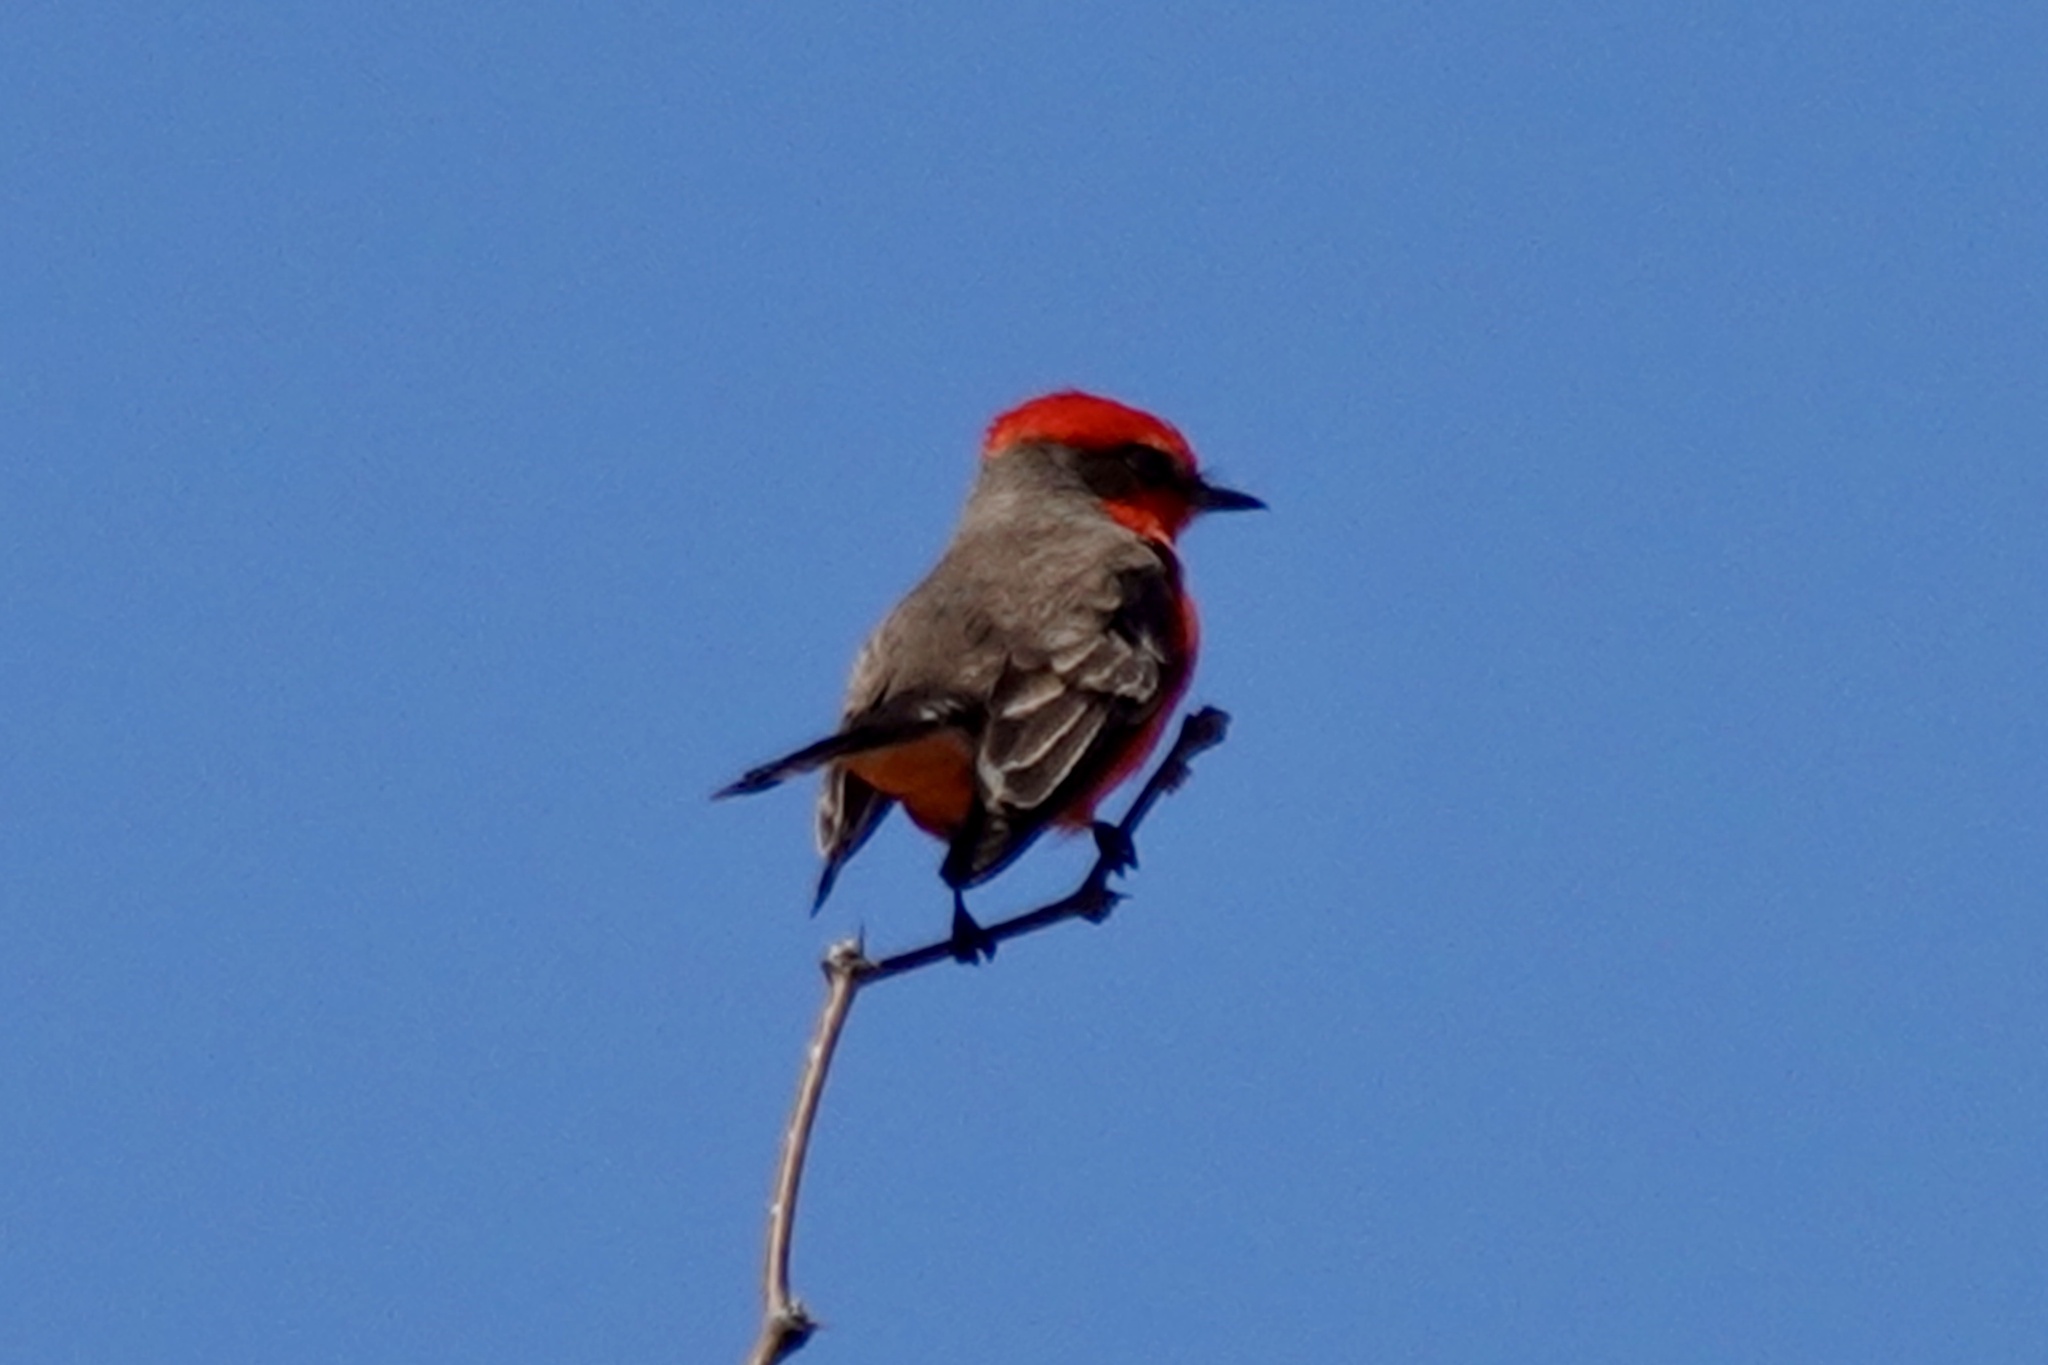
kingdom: Animalia
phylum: Chordata
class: Aves
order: Passeriformes
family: Tyrannidae
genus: Pyrocephalus
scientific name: Pyrocephalus rubinus
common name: Vermilion flycatcher
